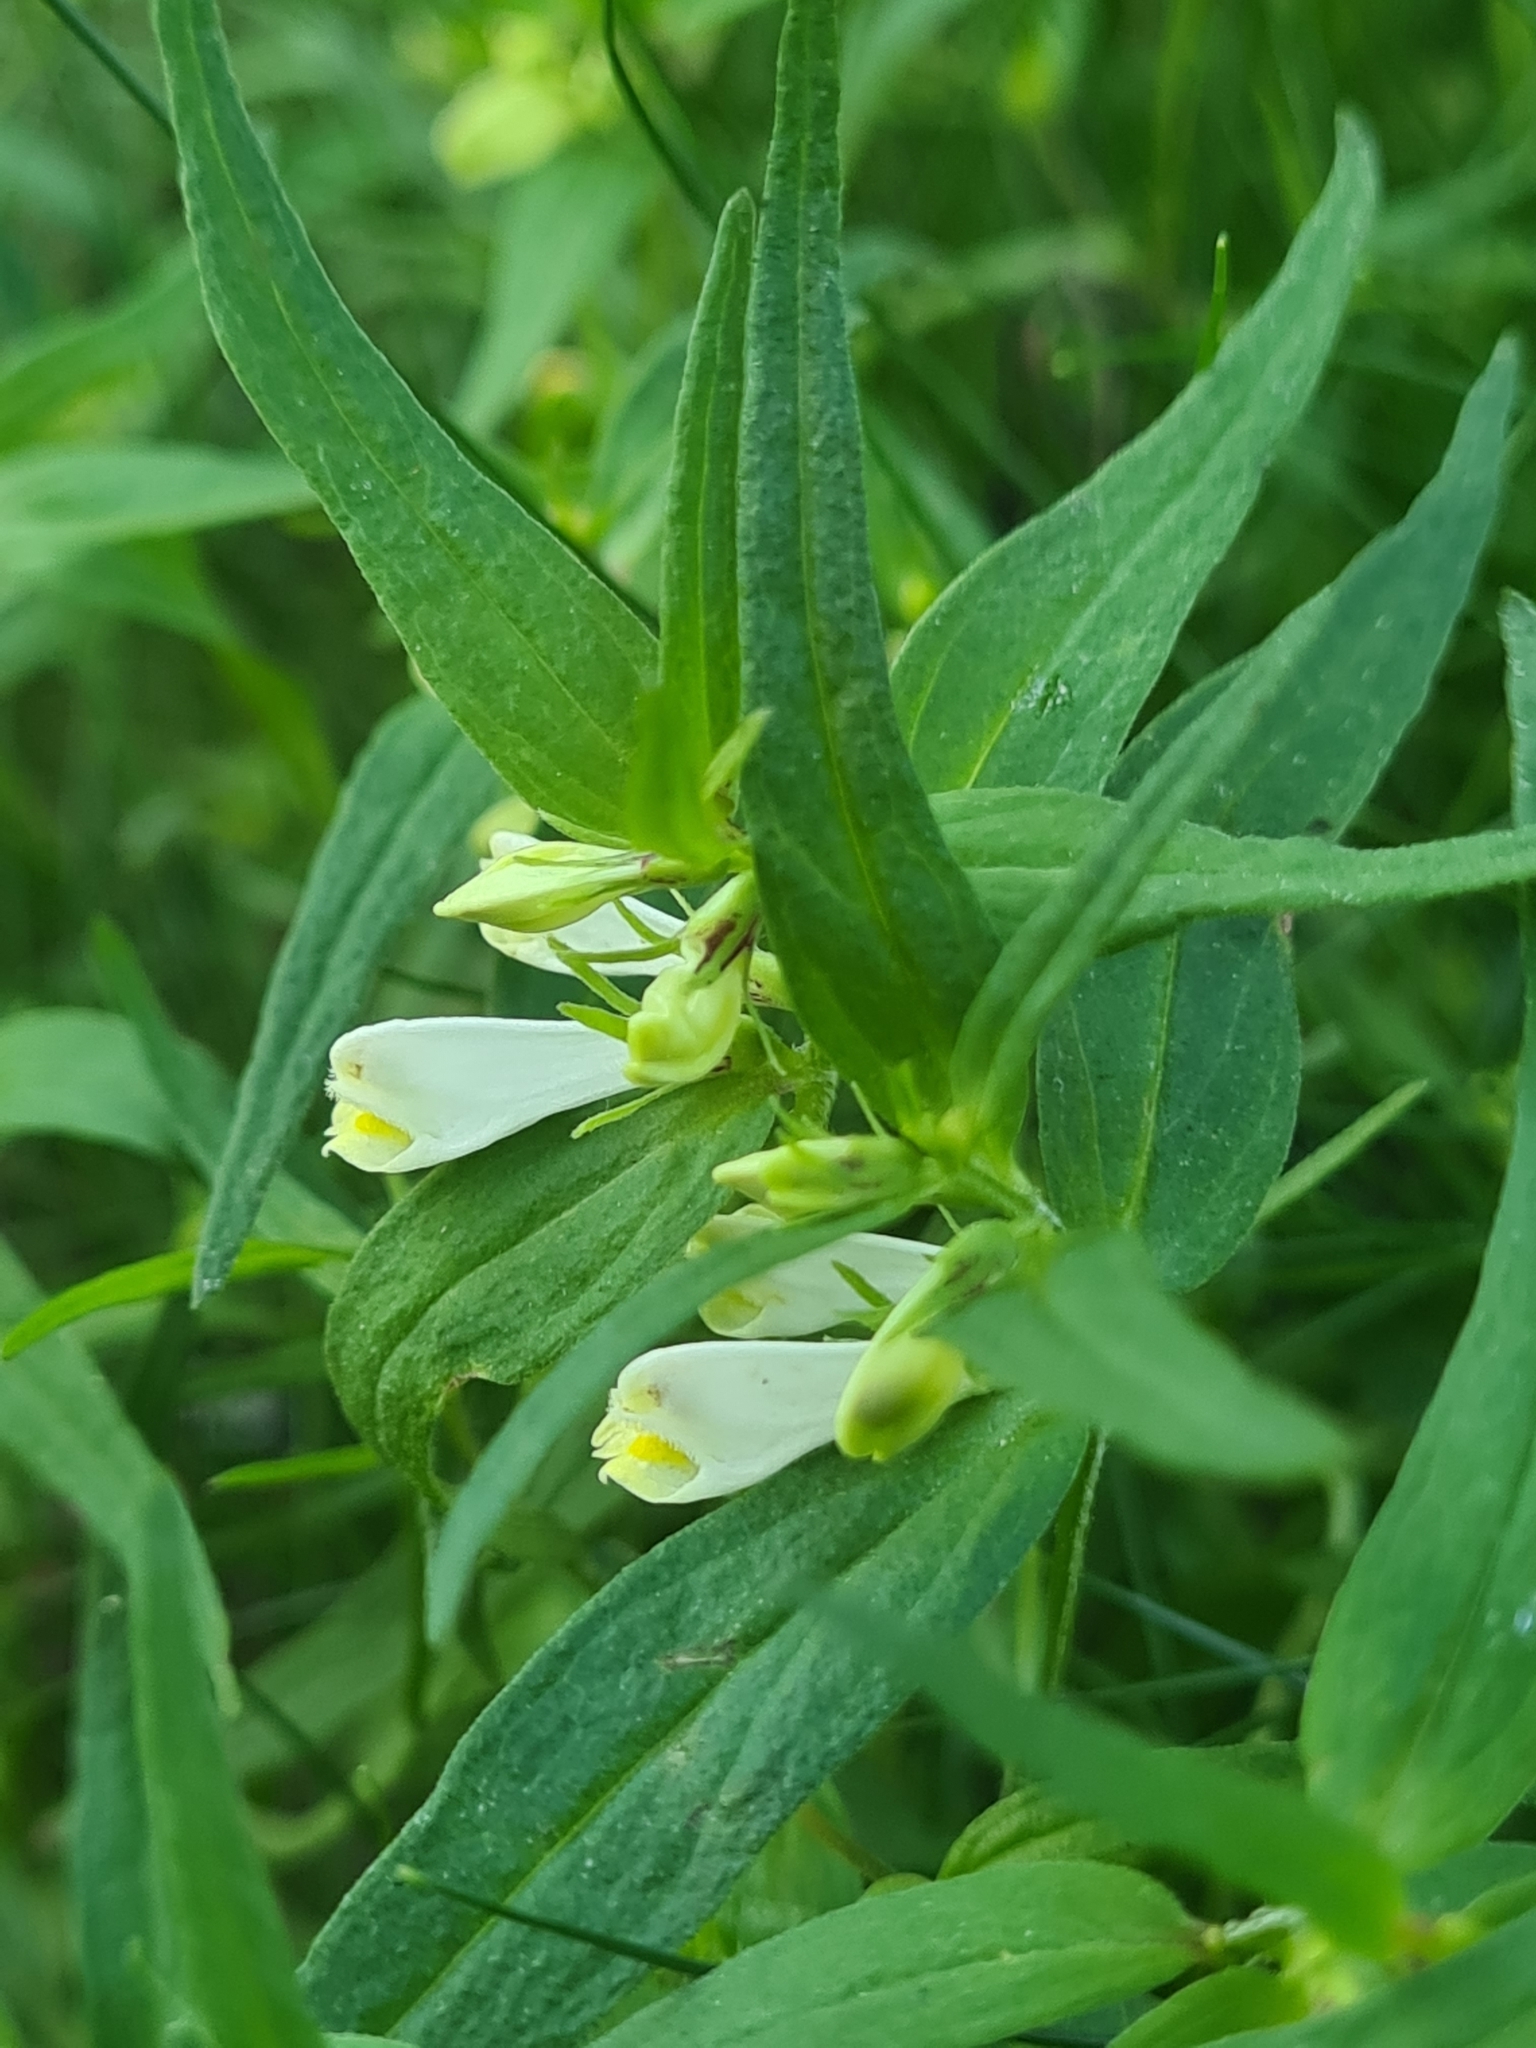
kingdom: Plantae
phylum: Tracheophyta
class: Magnoliopsida
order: Lamiales
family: Orobanchaceae
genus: Melampyrum
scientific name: Melampyrum pratense
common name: Common cow-wheat
